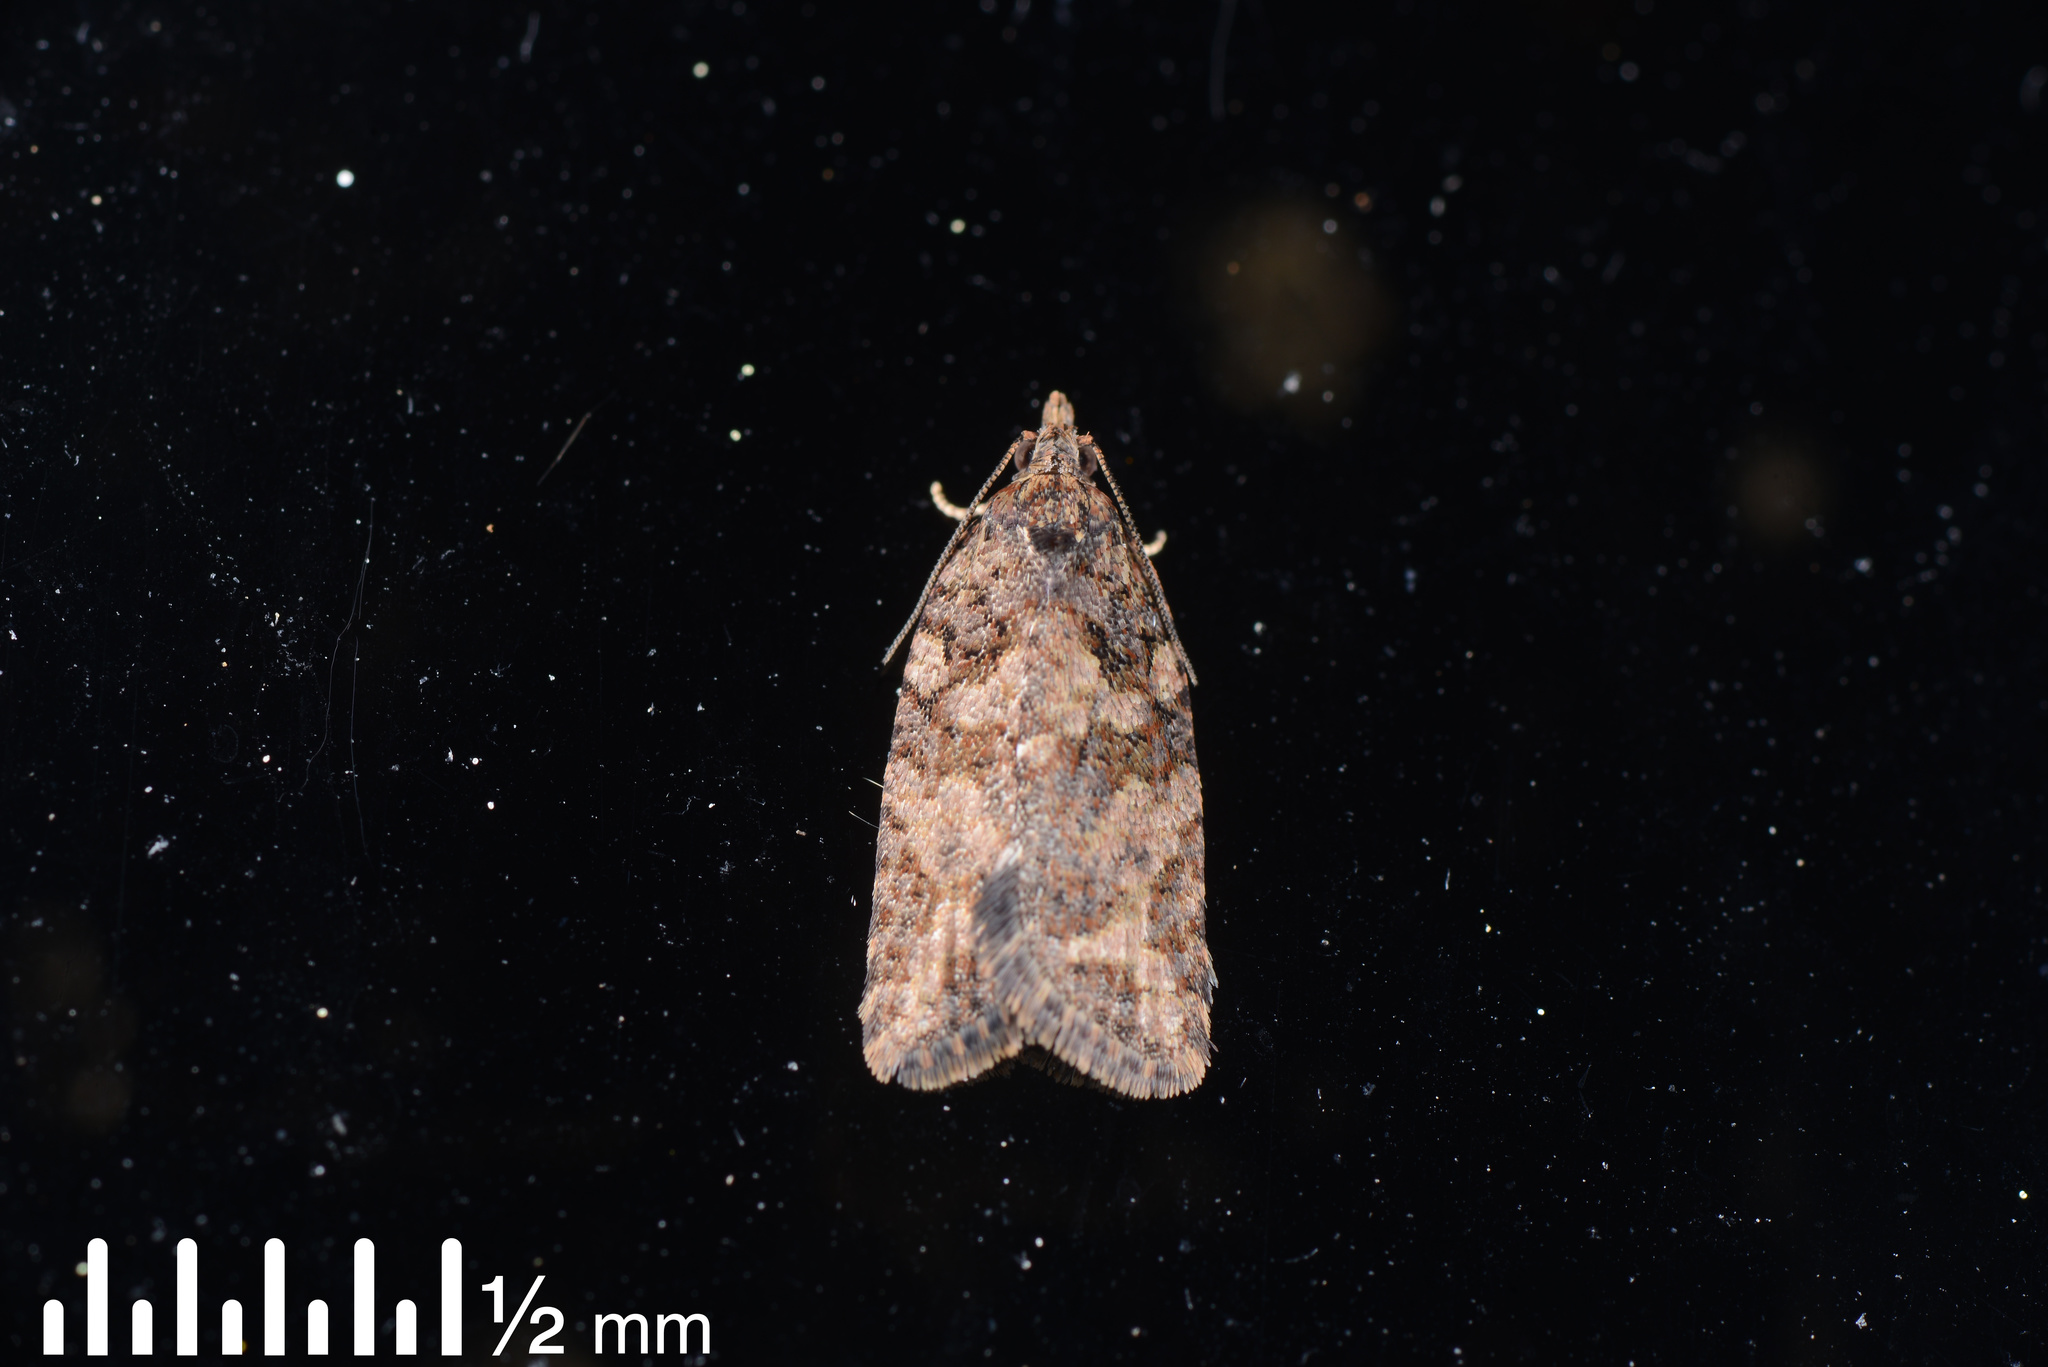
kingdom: Animalia
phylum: Arthropoda
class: Insecta
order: Lepidoptera
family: Tortricidae
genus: Capua
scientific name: Capua intractana
